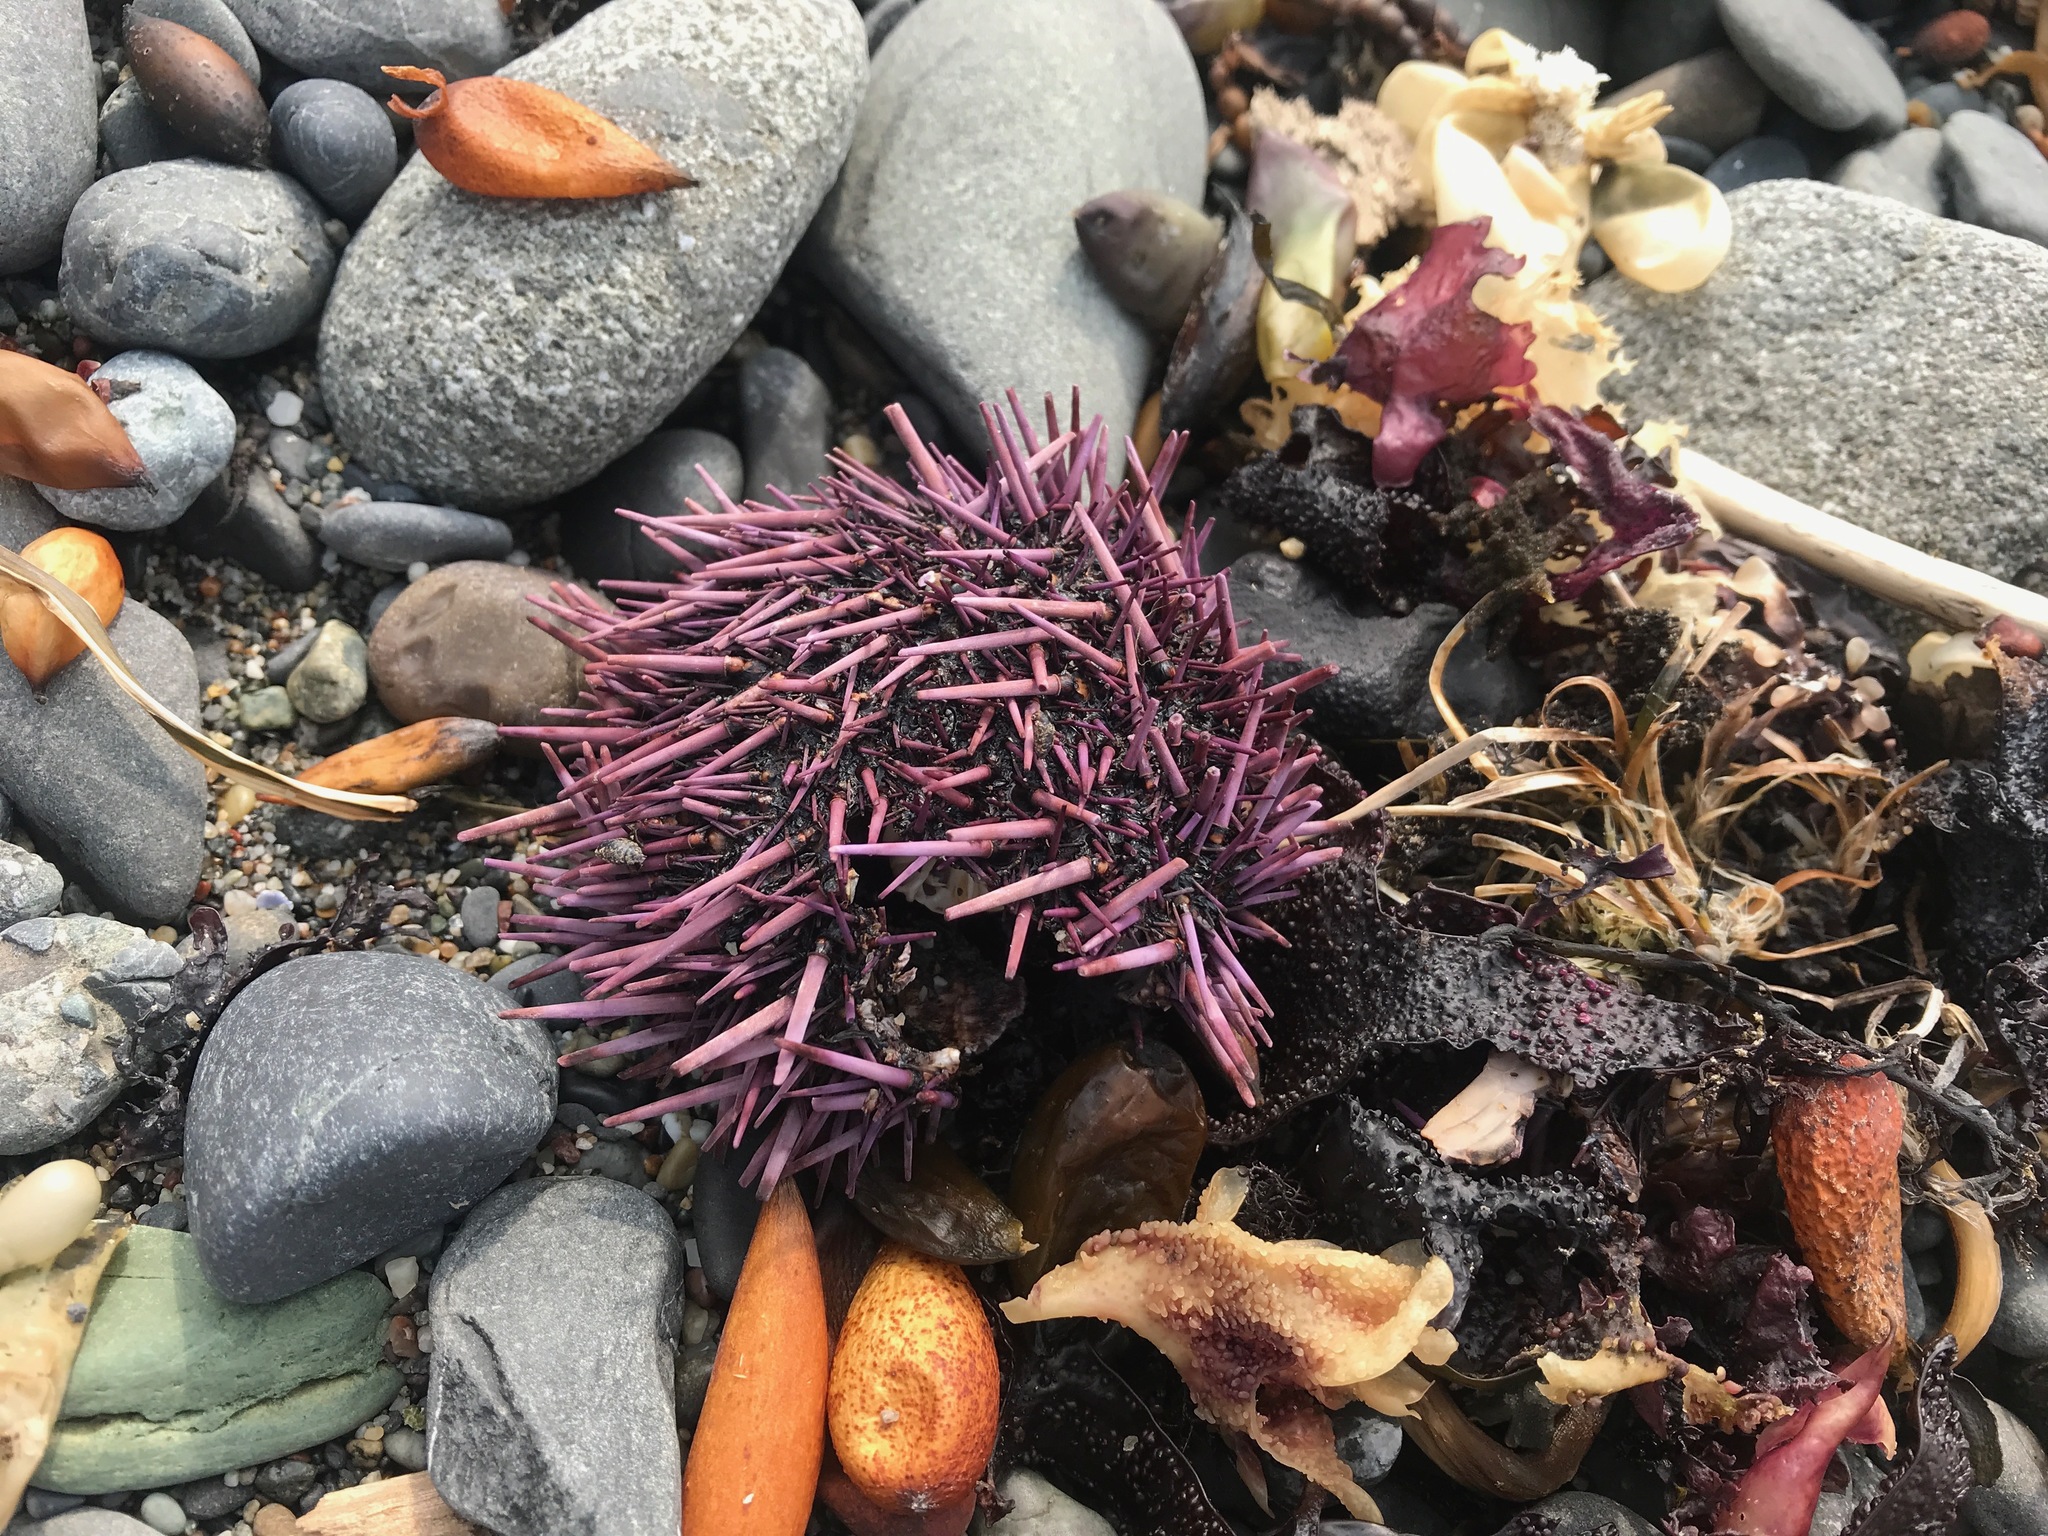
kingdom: Animalia
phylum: Echinodermata
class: Echinoidea
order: Camarodonta
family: Strongylocentrotidae
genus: Strongylocentrotus
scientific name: Strongylocentrotus purpuratus
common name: Purple sea urchin
